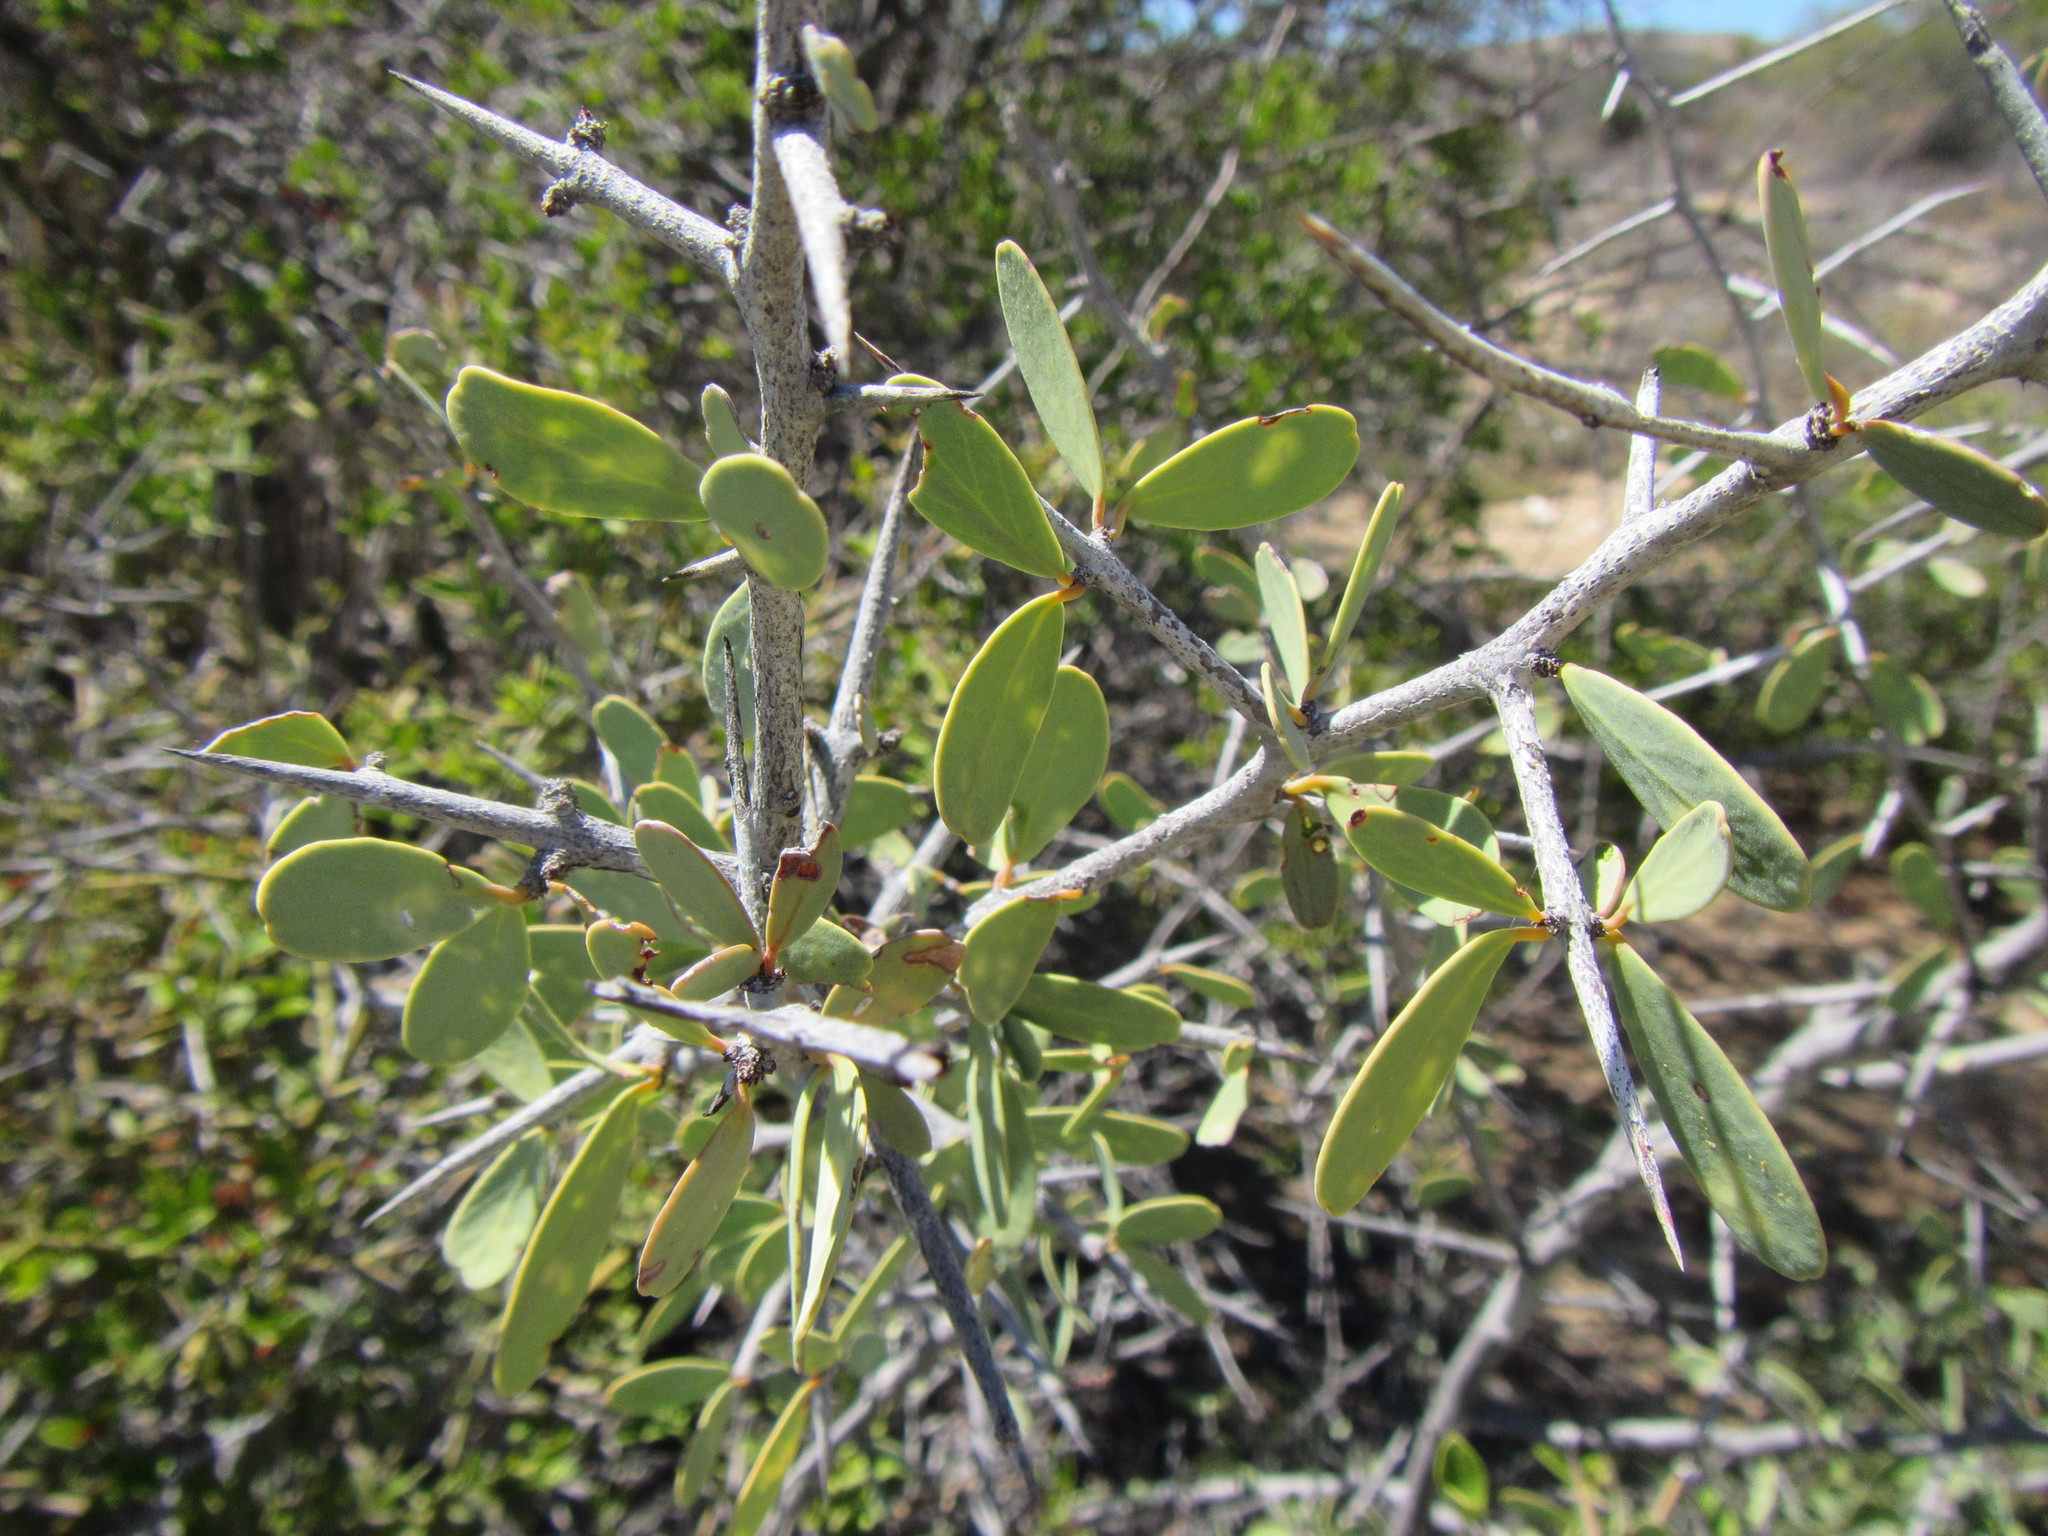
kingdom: Plantae
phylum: Tracheophyta
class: Magnoliopsida
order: Celastrales
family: Celastraceae
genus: Gloveria
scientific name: Gloveria integrifolia
